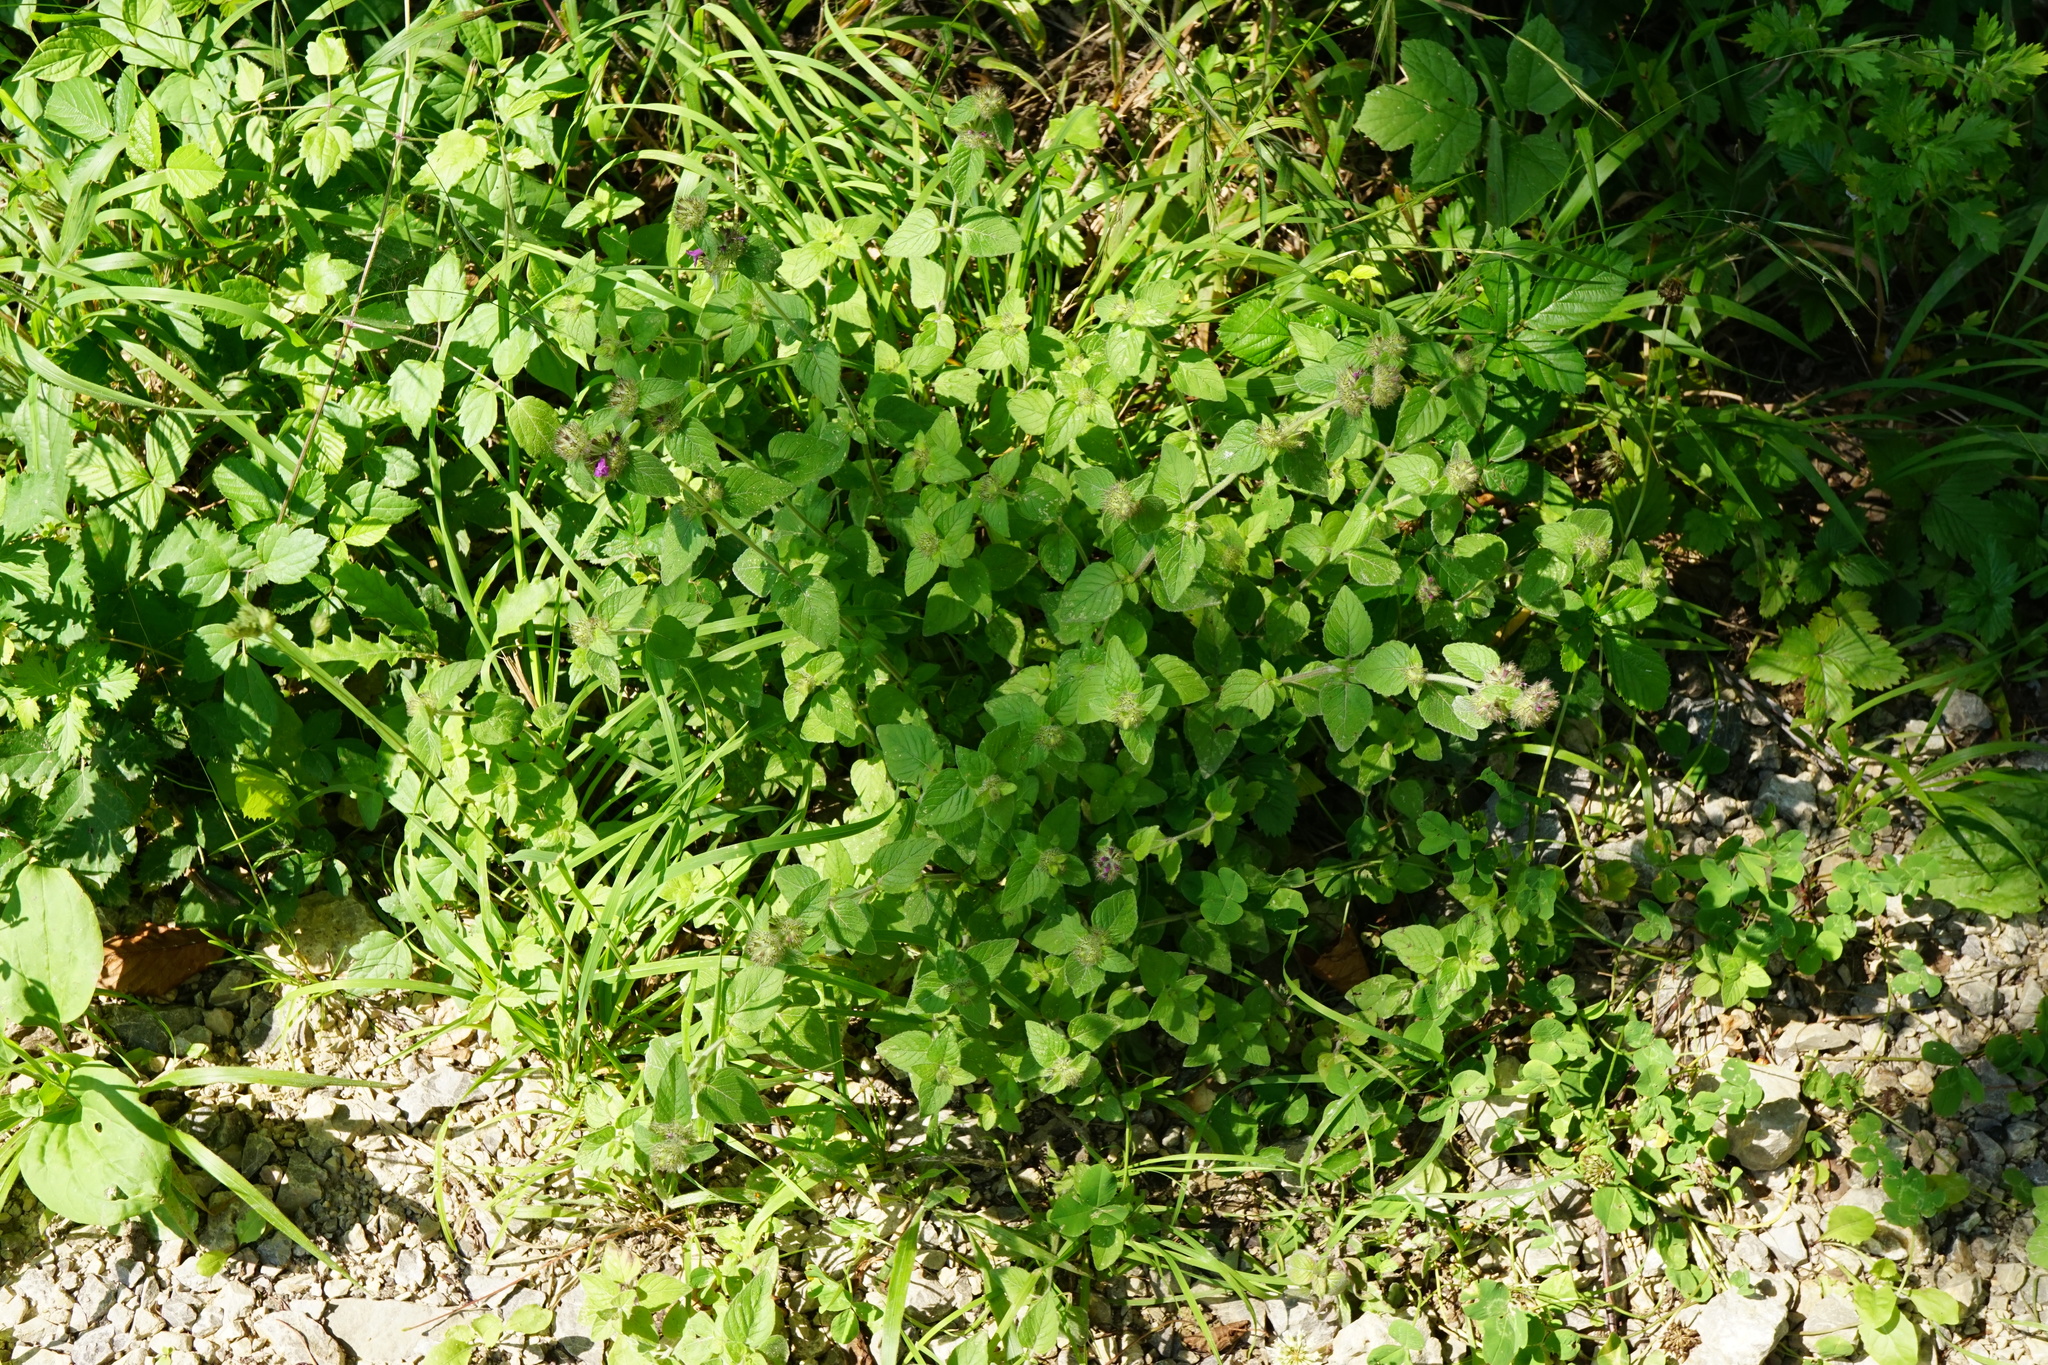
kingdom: Plantae
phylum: Tracheophyta
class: Magnoliopsida
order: Lamiales
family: Lamiaceae
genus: Clinopodium
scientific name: Clinopodium vulgare
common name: Wild basil
